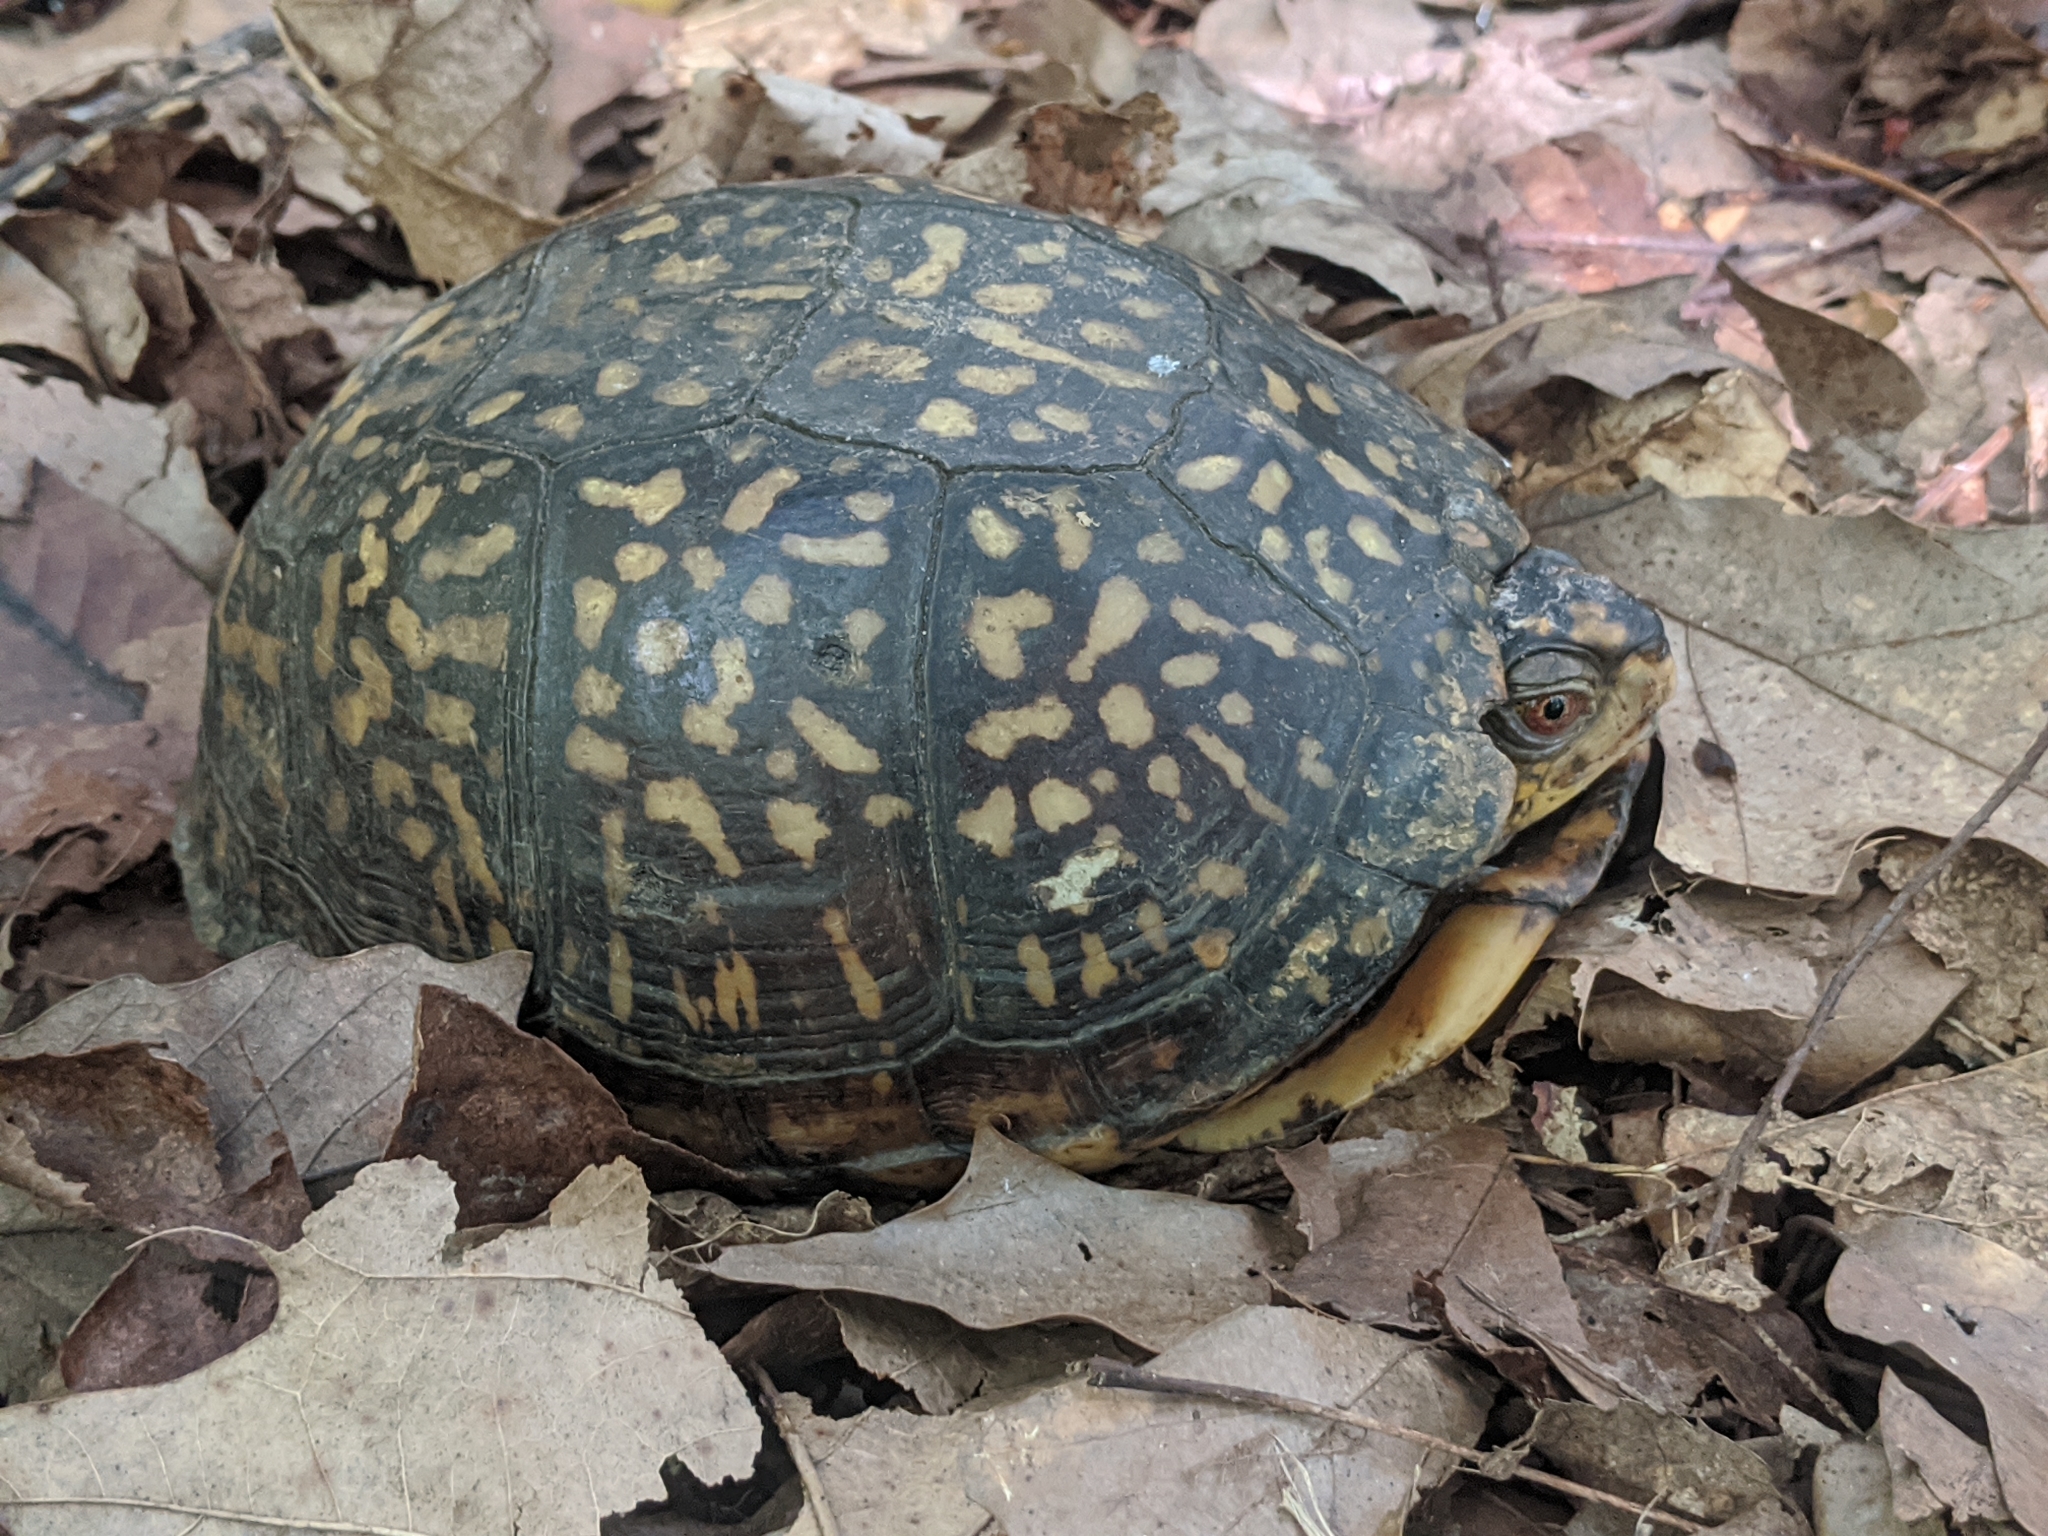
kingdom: Animalia
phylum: Chordata
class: Testudines
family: Emydidae
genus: Terrapene
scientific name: Terrapene carolina
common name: Common box turtle
